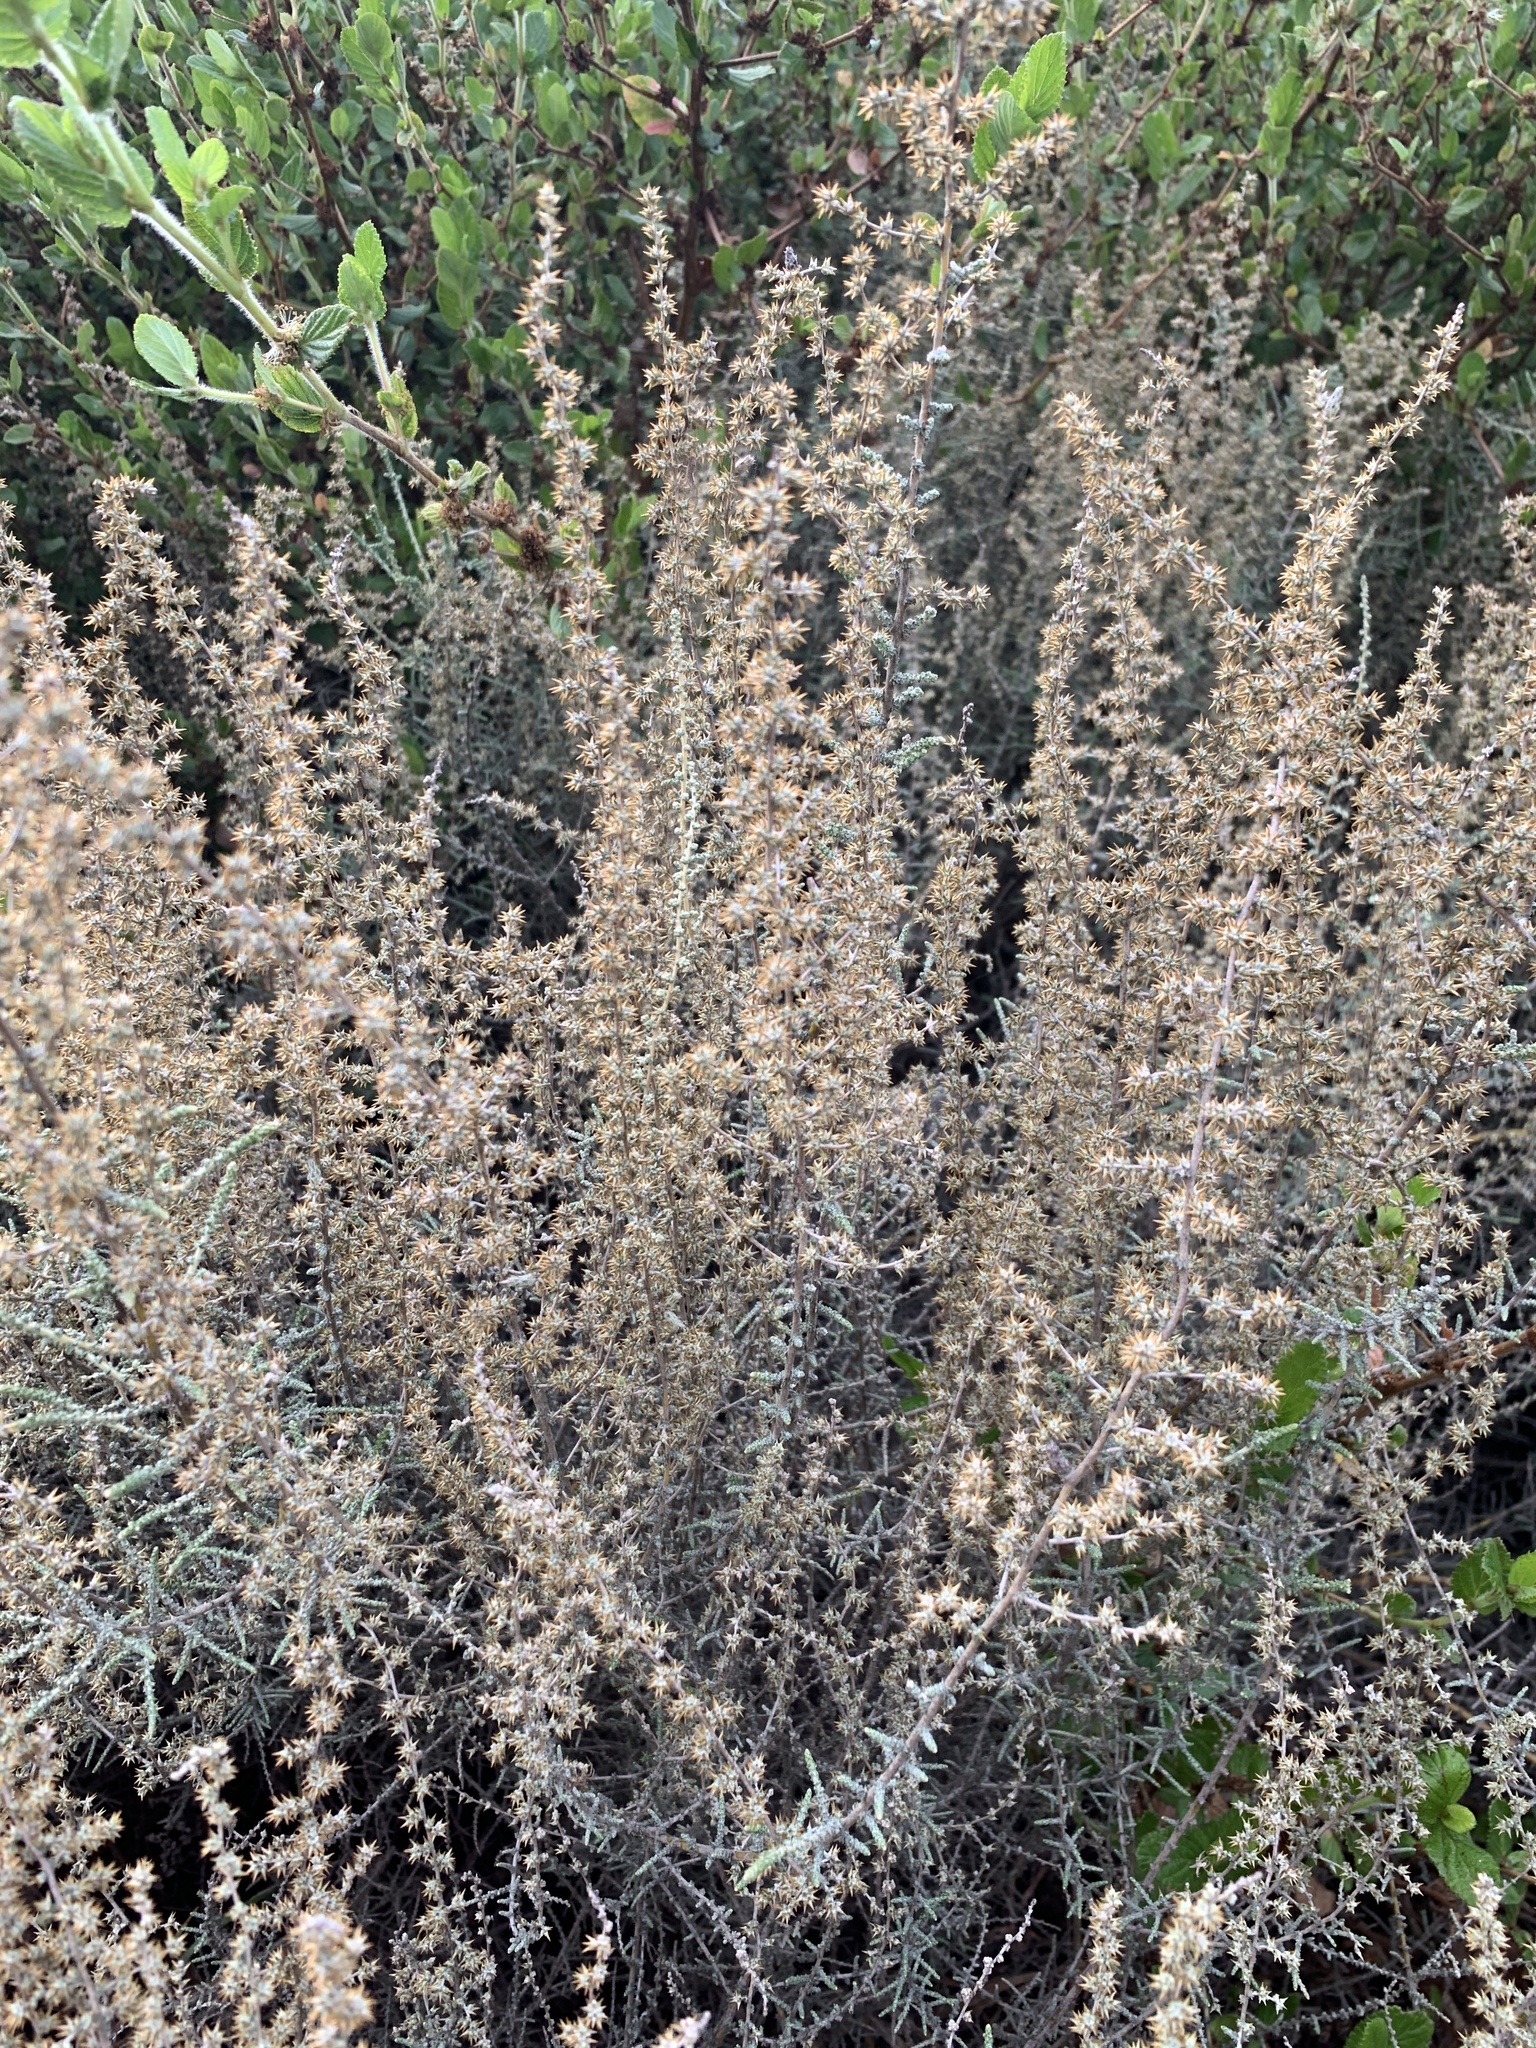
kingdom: Plantae
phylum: Tracheophyta
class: Magnoliopsida
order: Asterales
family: Asteraceae
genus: Seriphium
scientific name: Seriphium plumosum
